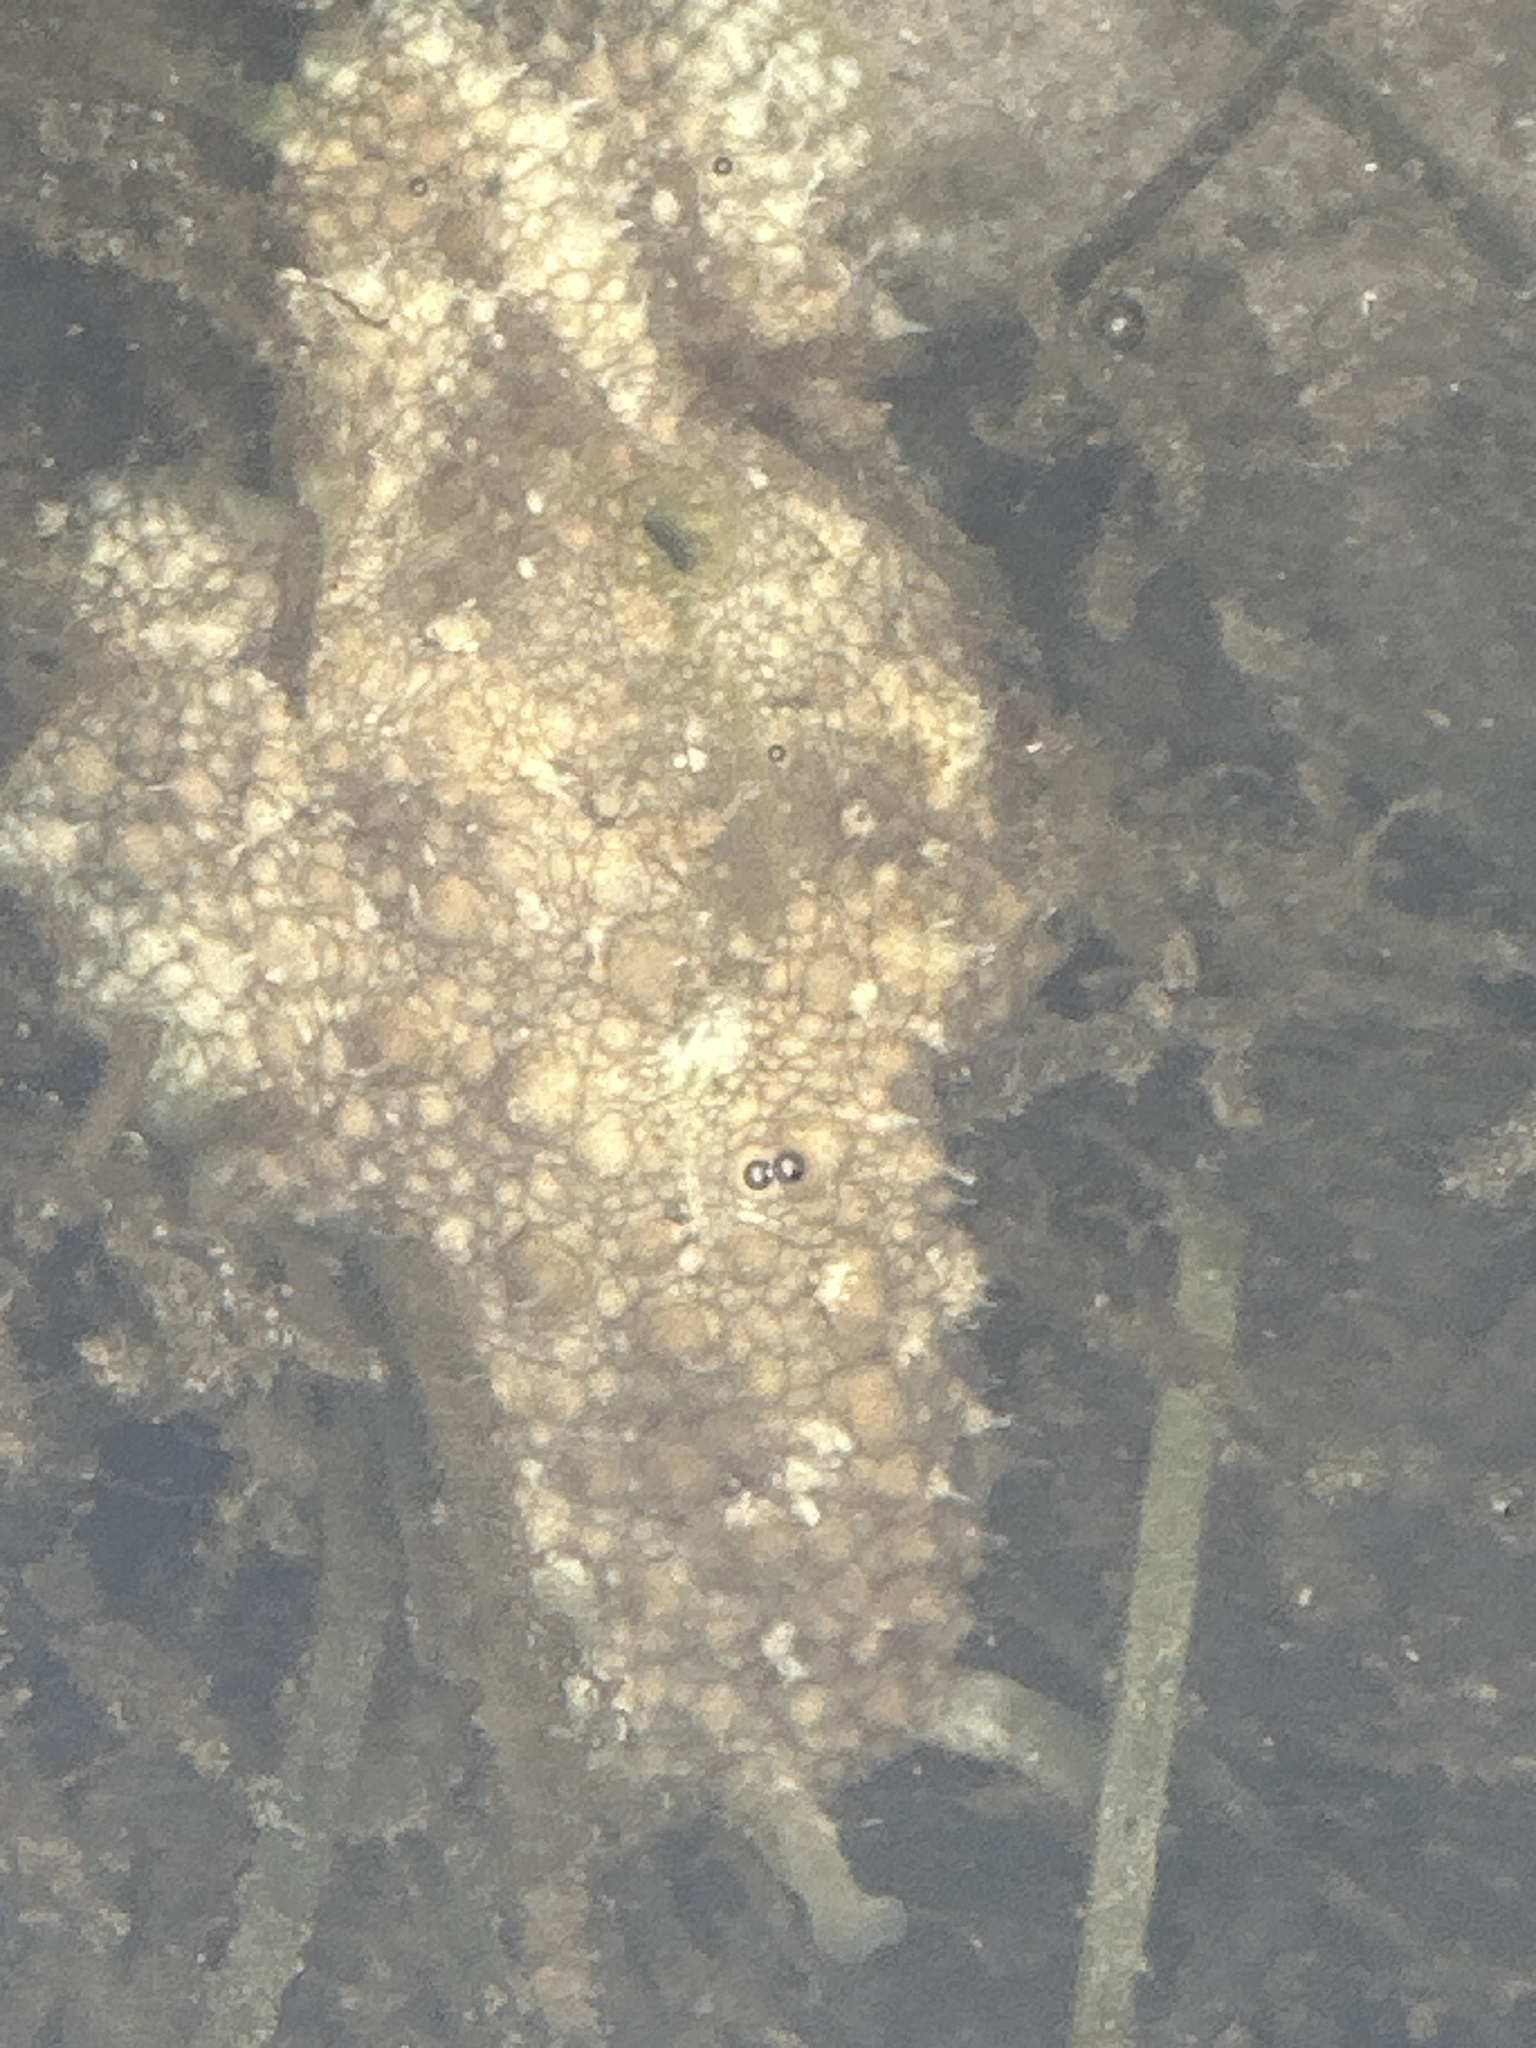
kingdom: Animalia
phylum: Mollusca
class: Gastropoda
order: Aplysiida
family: Aplysiidae
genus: Dolabrifera
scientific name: Dolabrifera brazieri
